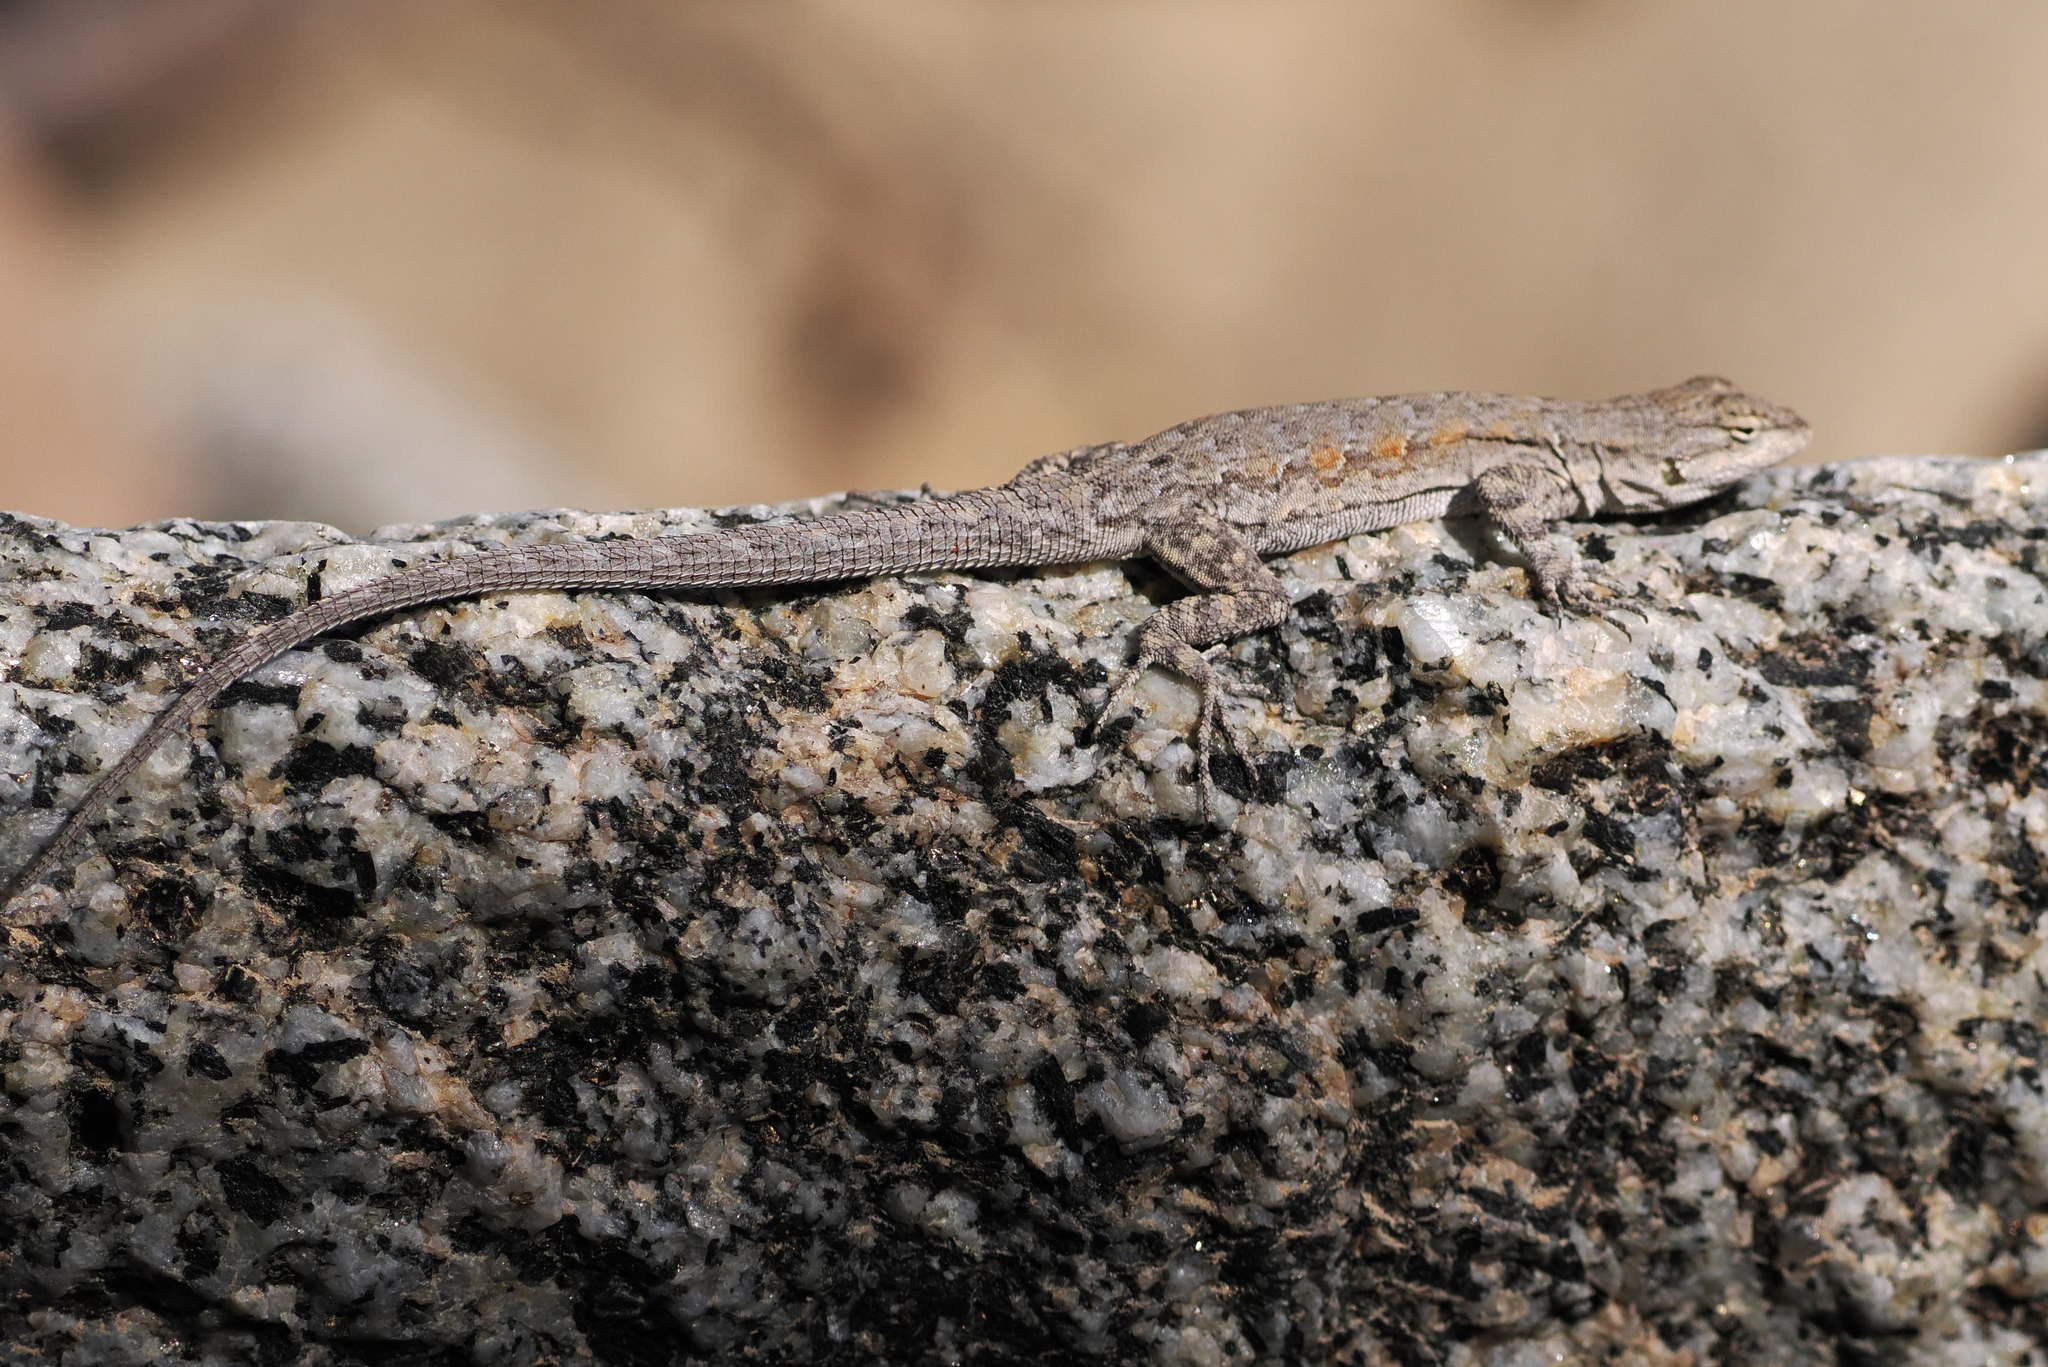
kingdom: Animalia
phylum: Chordata
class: Squamata
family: Phrynosomatidae
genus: Urosaurus
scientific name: Urosaurus nigricauda
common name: Baja california brush lizard
